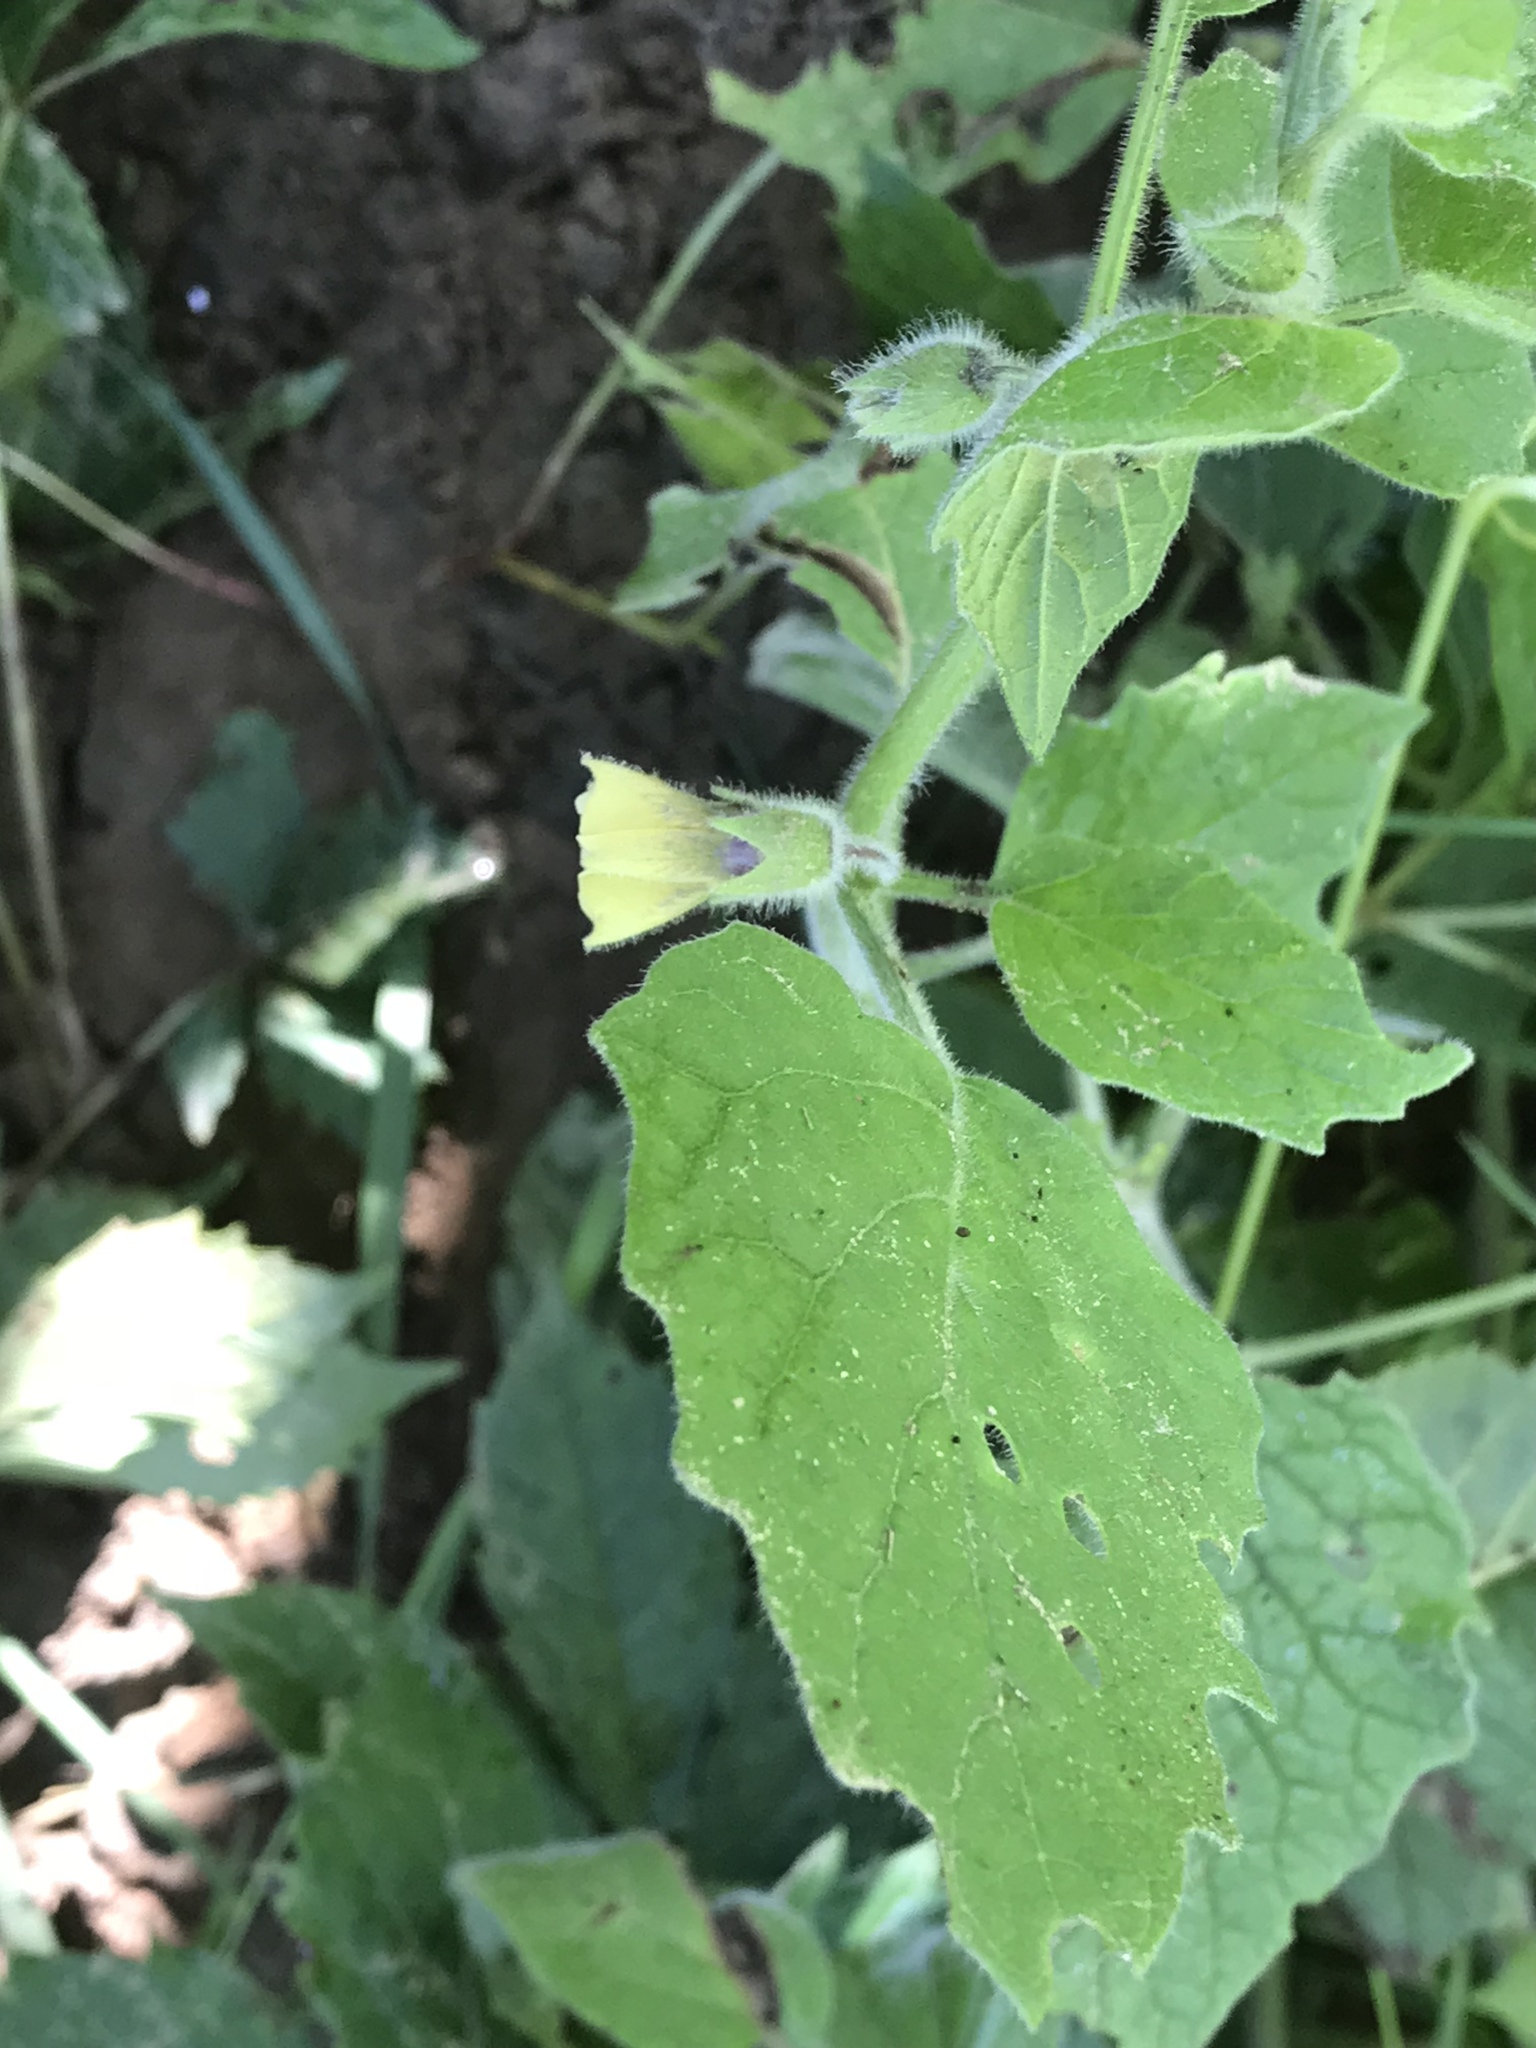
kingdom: Plantae
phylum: Tracheophyta
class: Magnoliopsida
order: Solanales
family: Solanaceae
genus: Physalis
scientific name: Physalis heterophylla
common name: Clammy ground-cherry
